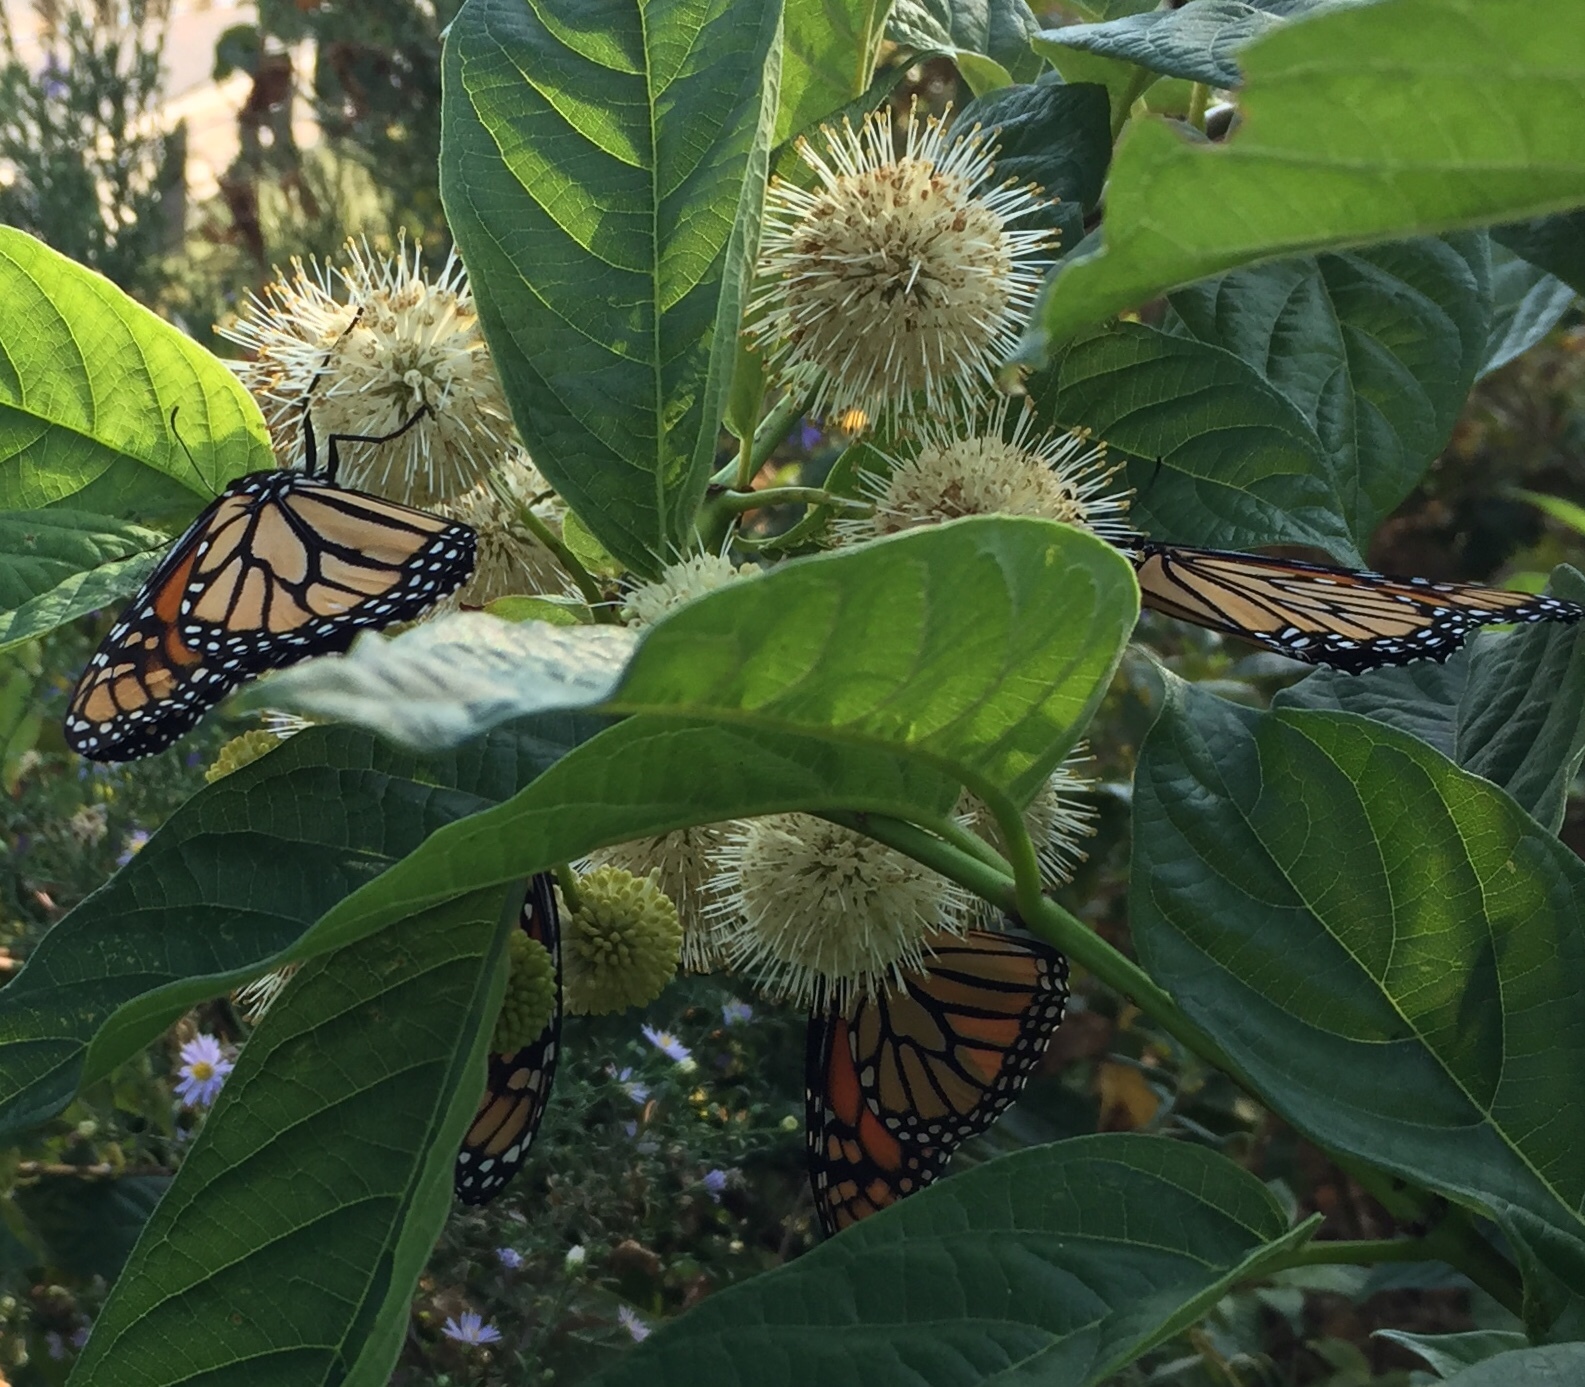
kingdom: Animalia
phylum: Arthropoda
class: Insecta
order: Lepidoptera
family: Nymphalidae
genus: Danaus
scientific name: Danaus plexippus
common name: Monarch
